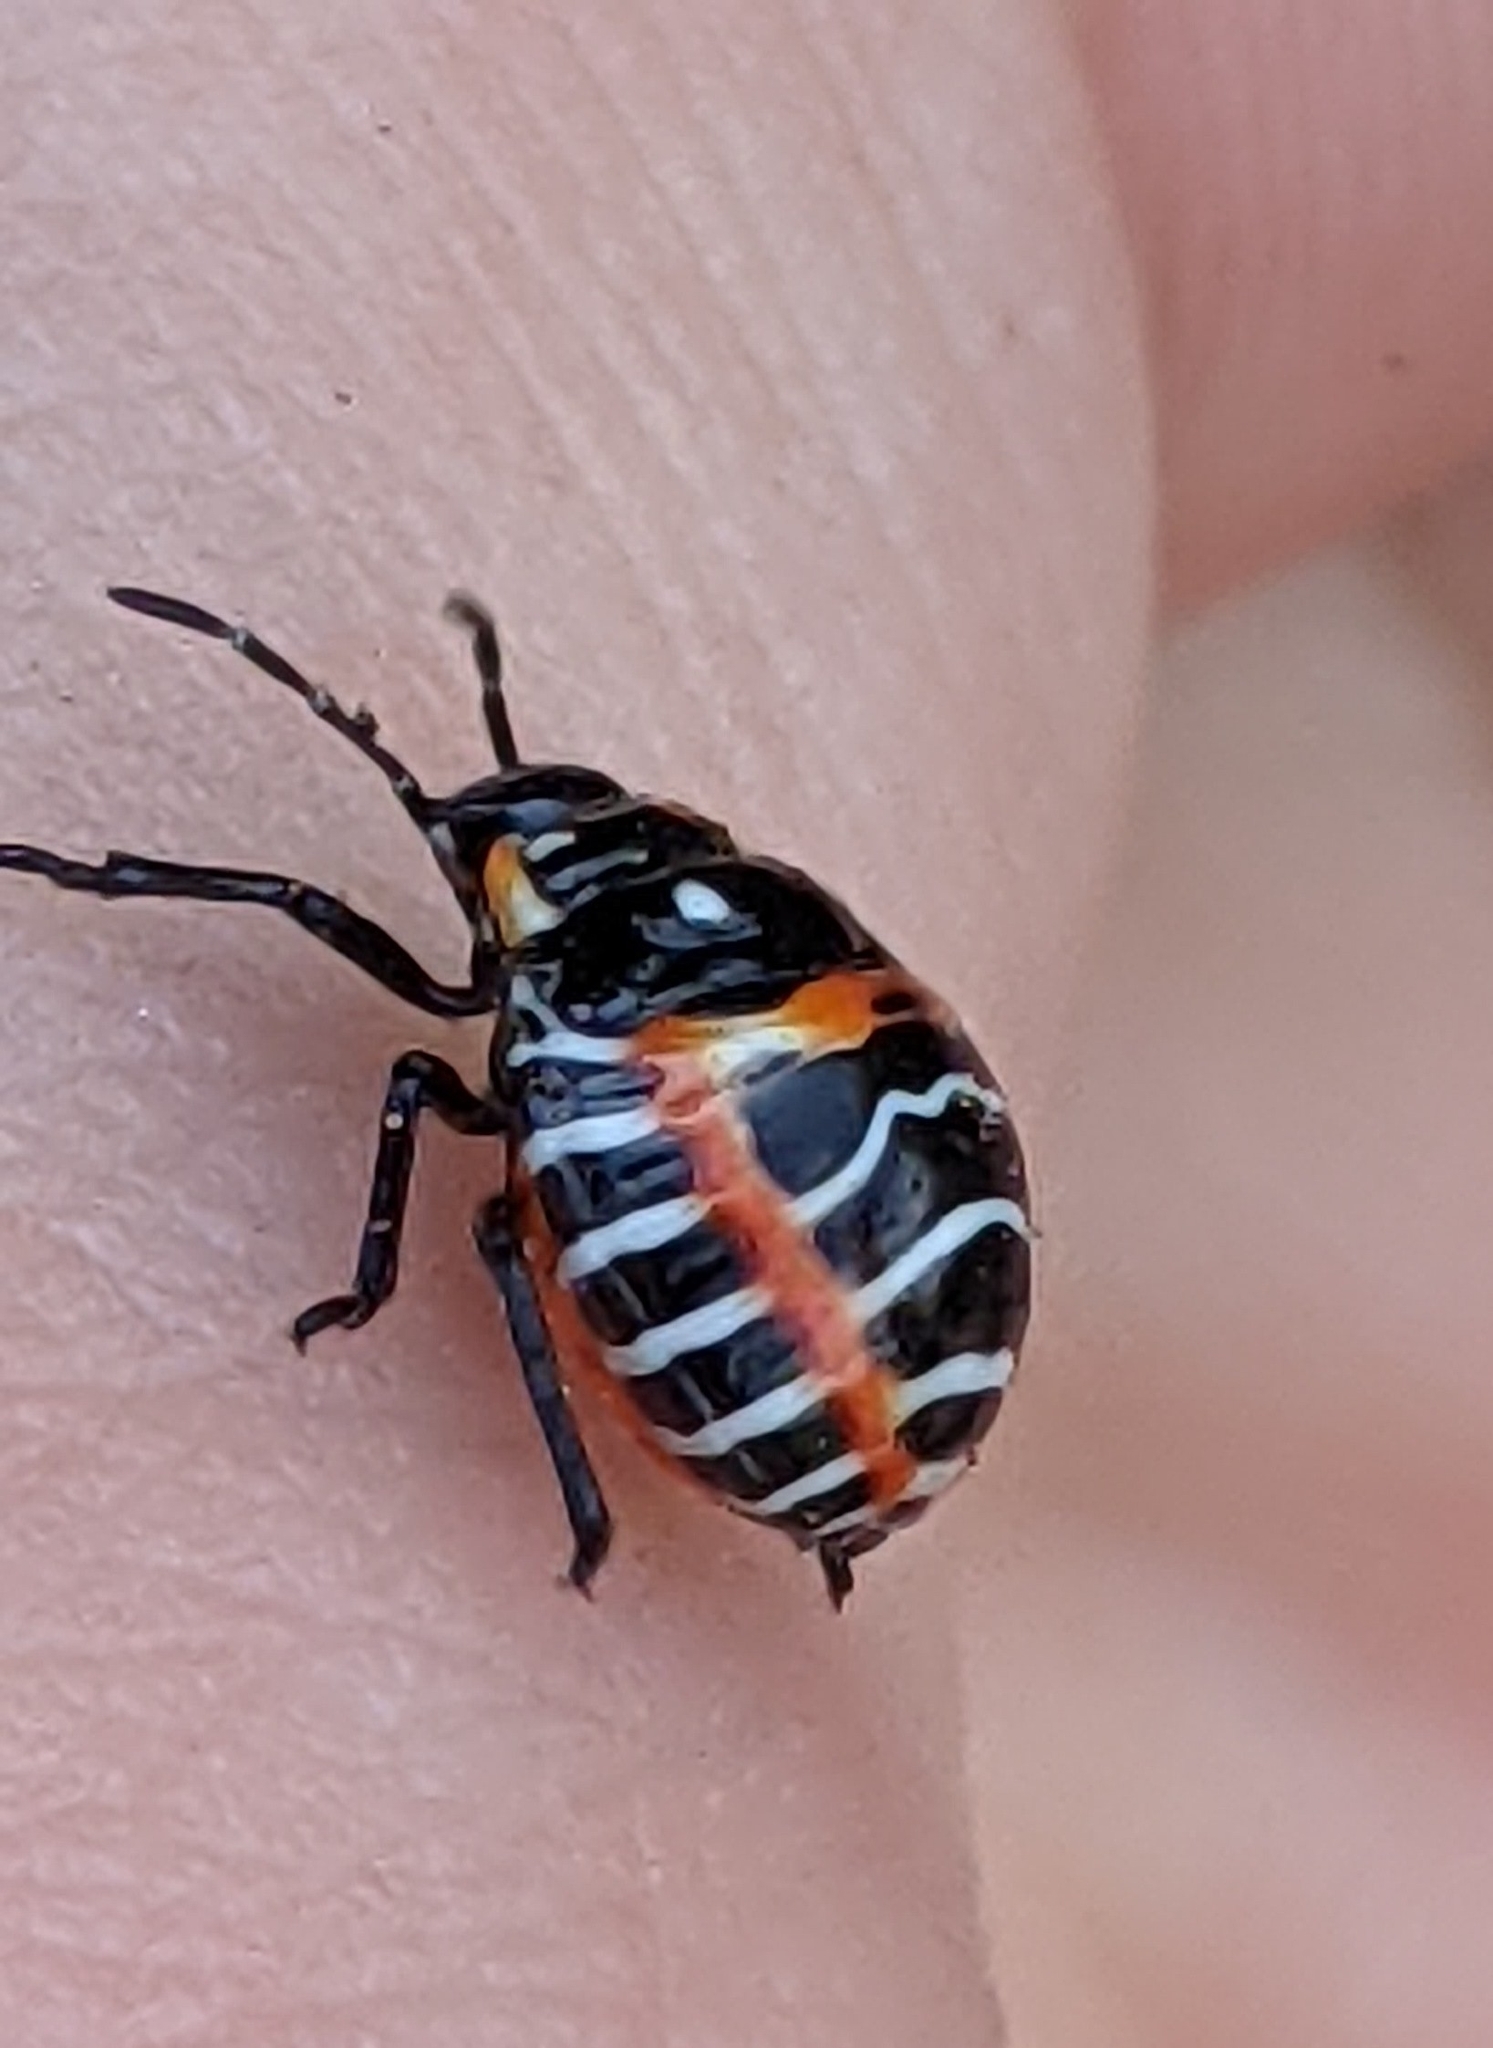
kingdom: Animalia
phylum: Arthropoda
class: Insecta
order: Hemiptera
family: Pentatomidae
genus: Murgantia
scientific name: Murgantia histrionica
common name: Harlequin bug
